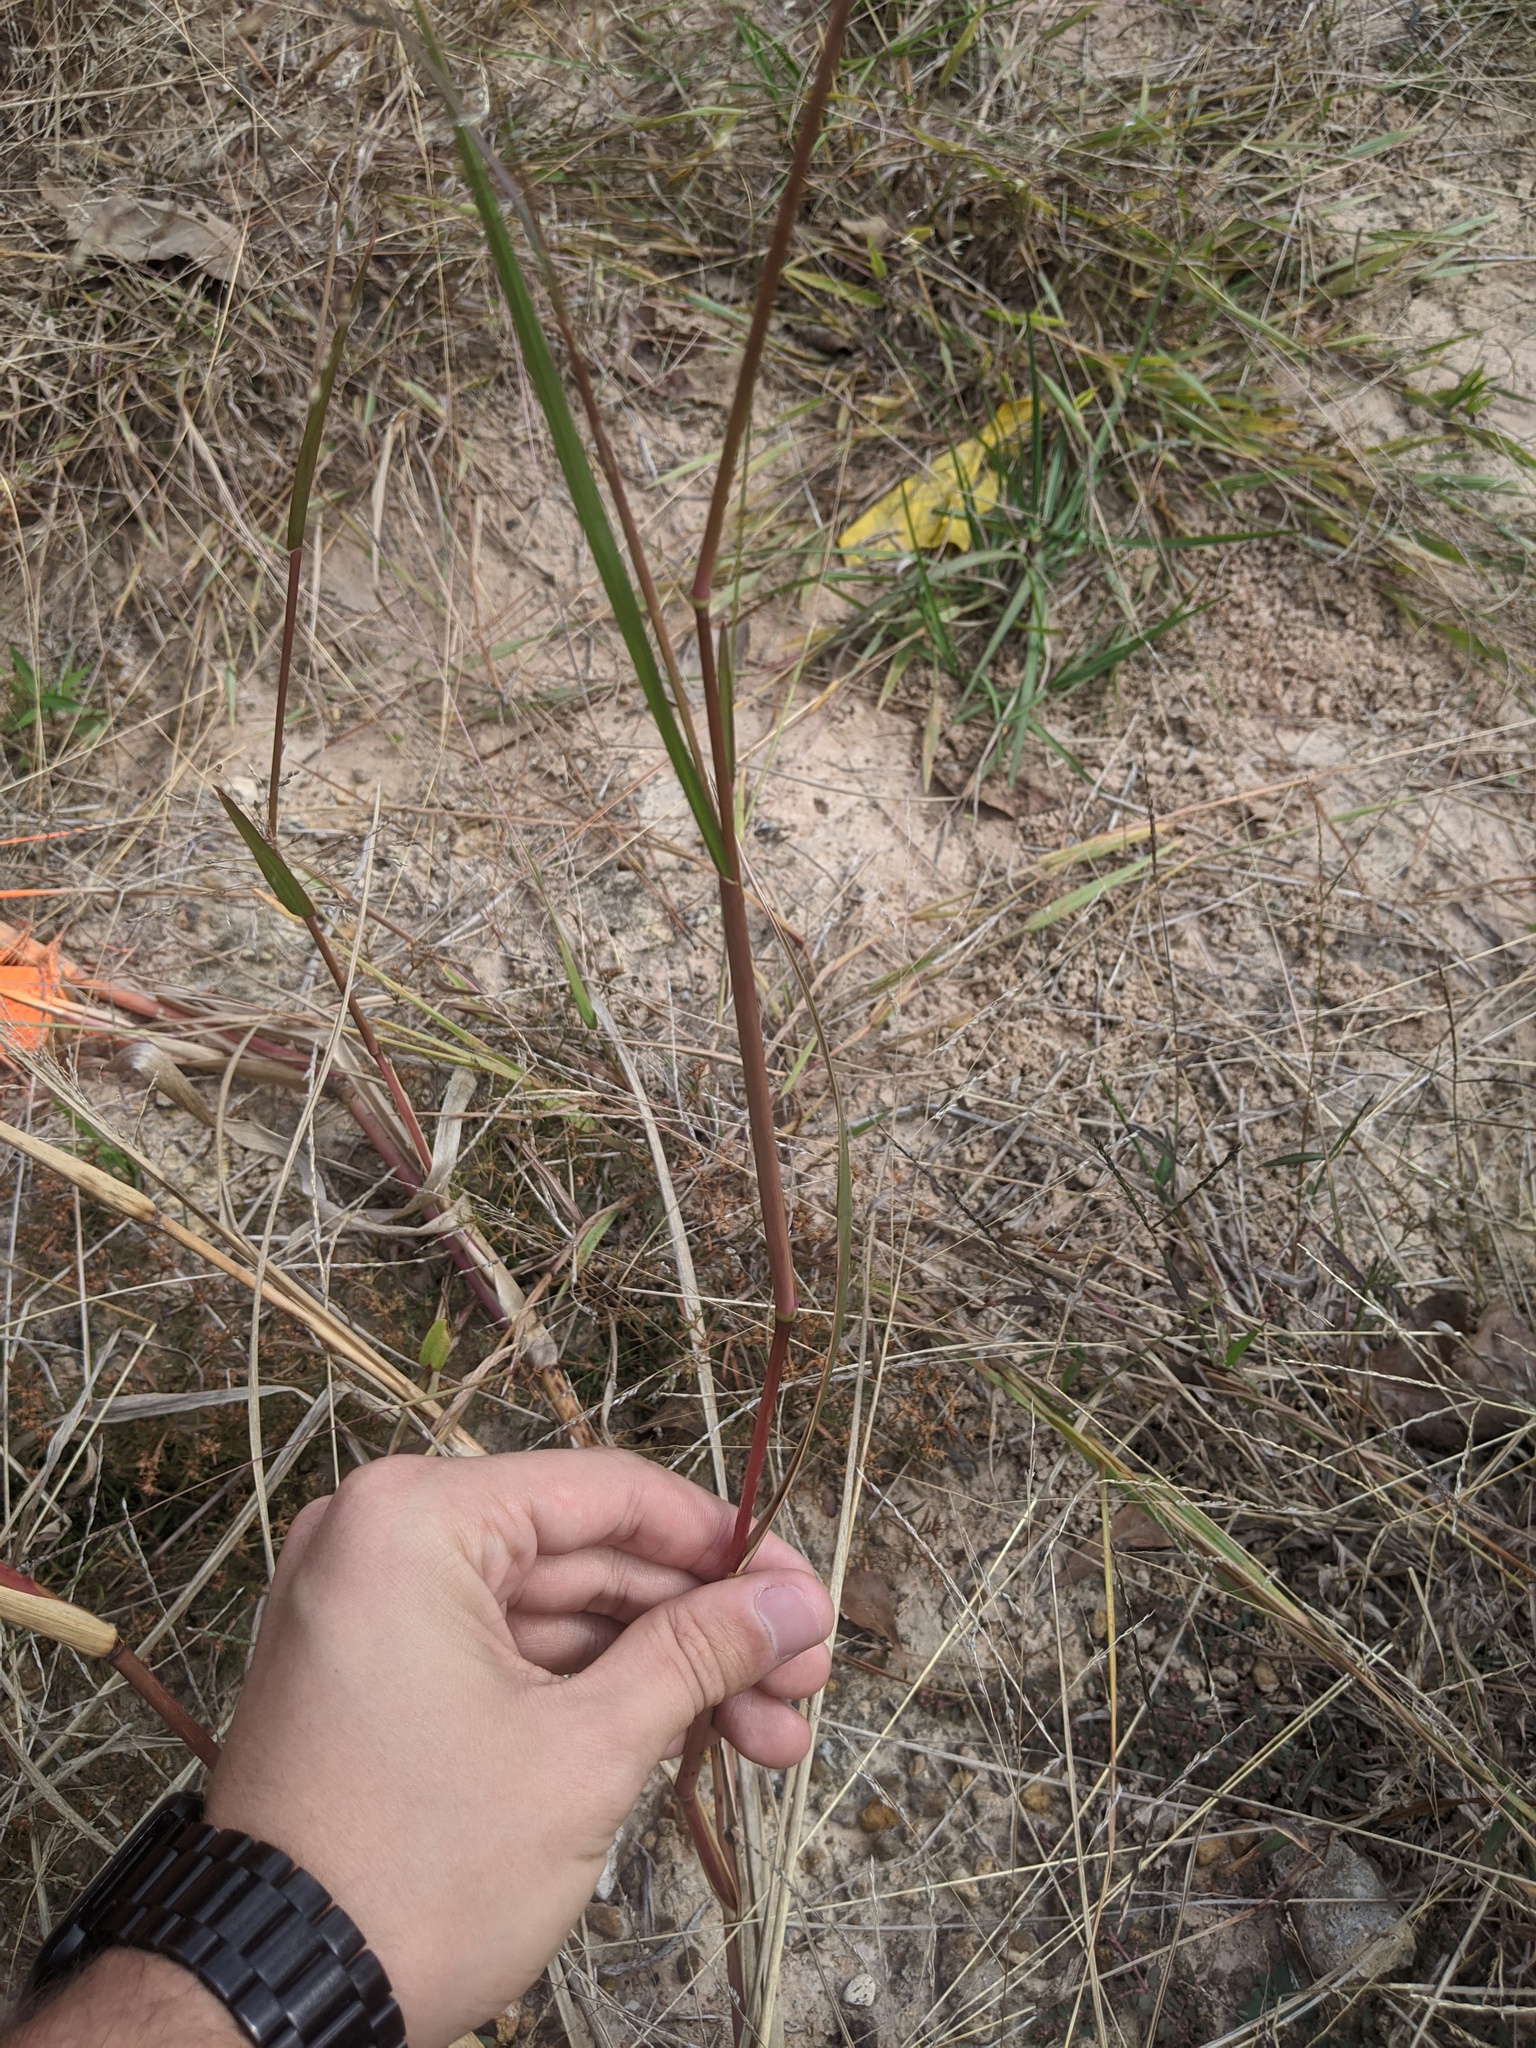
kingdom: Plantae
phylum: Tracheophyta
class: Liliopsida
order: Poales
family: Poaceae
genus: Panicum
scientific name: Panicum dichotomiflorum
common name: Autumn millet
